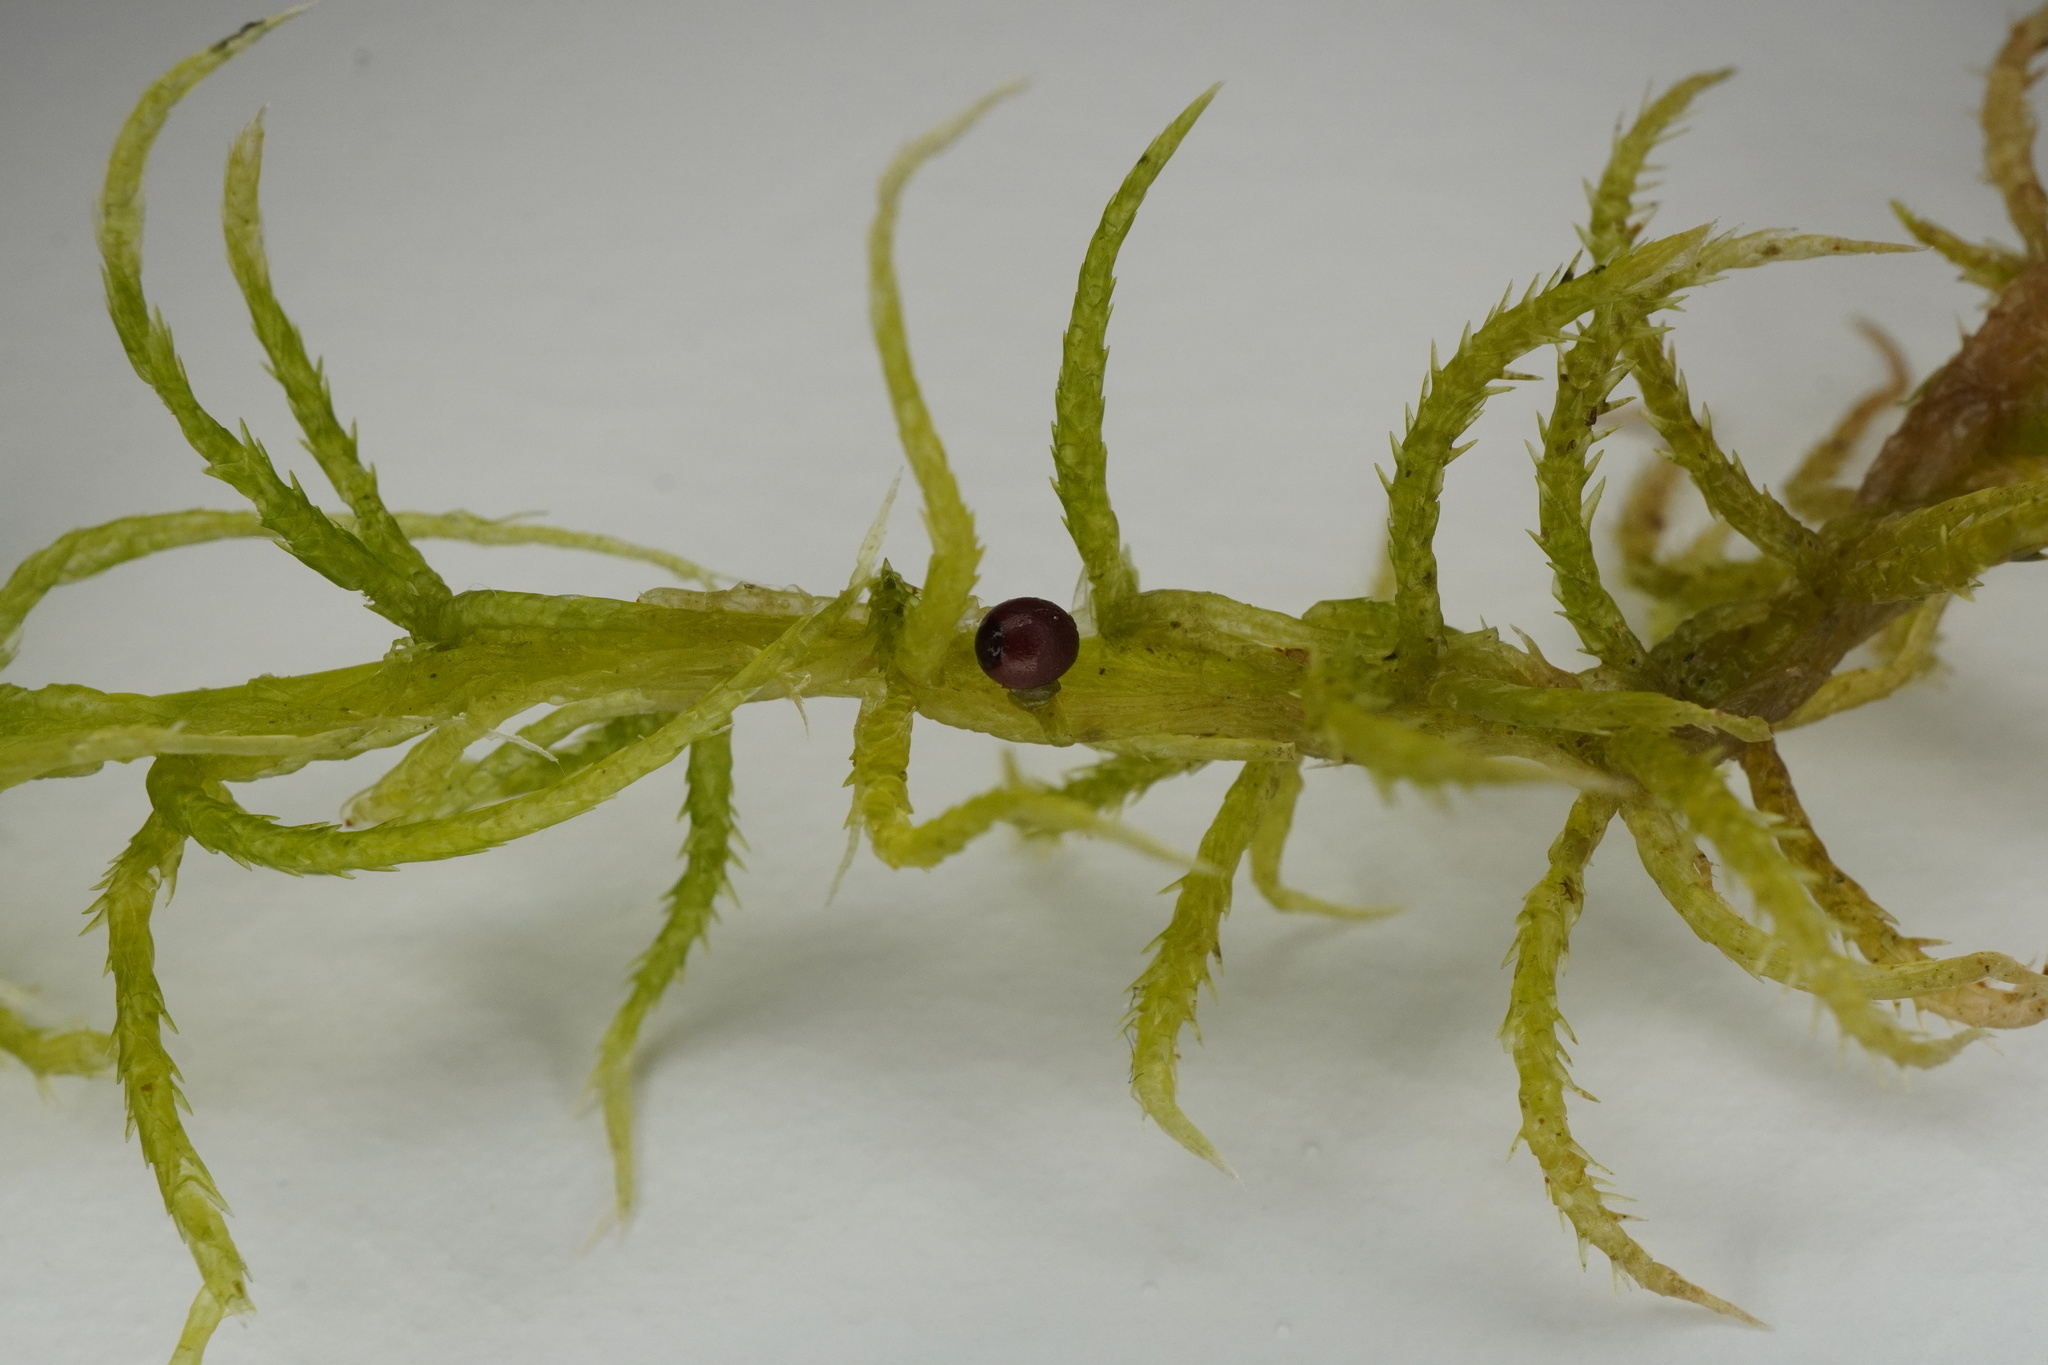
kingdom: Plantae
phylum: Bryophyta
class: Sphagnopsida
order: Sphagnales
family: Sphagnaceae
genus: Sphagnum
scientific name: Sphagnum squarrosum
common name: Shaggy peat moss
